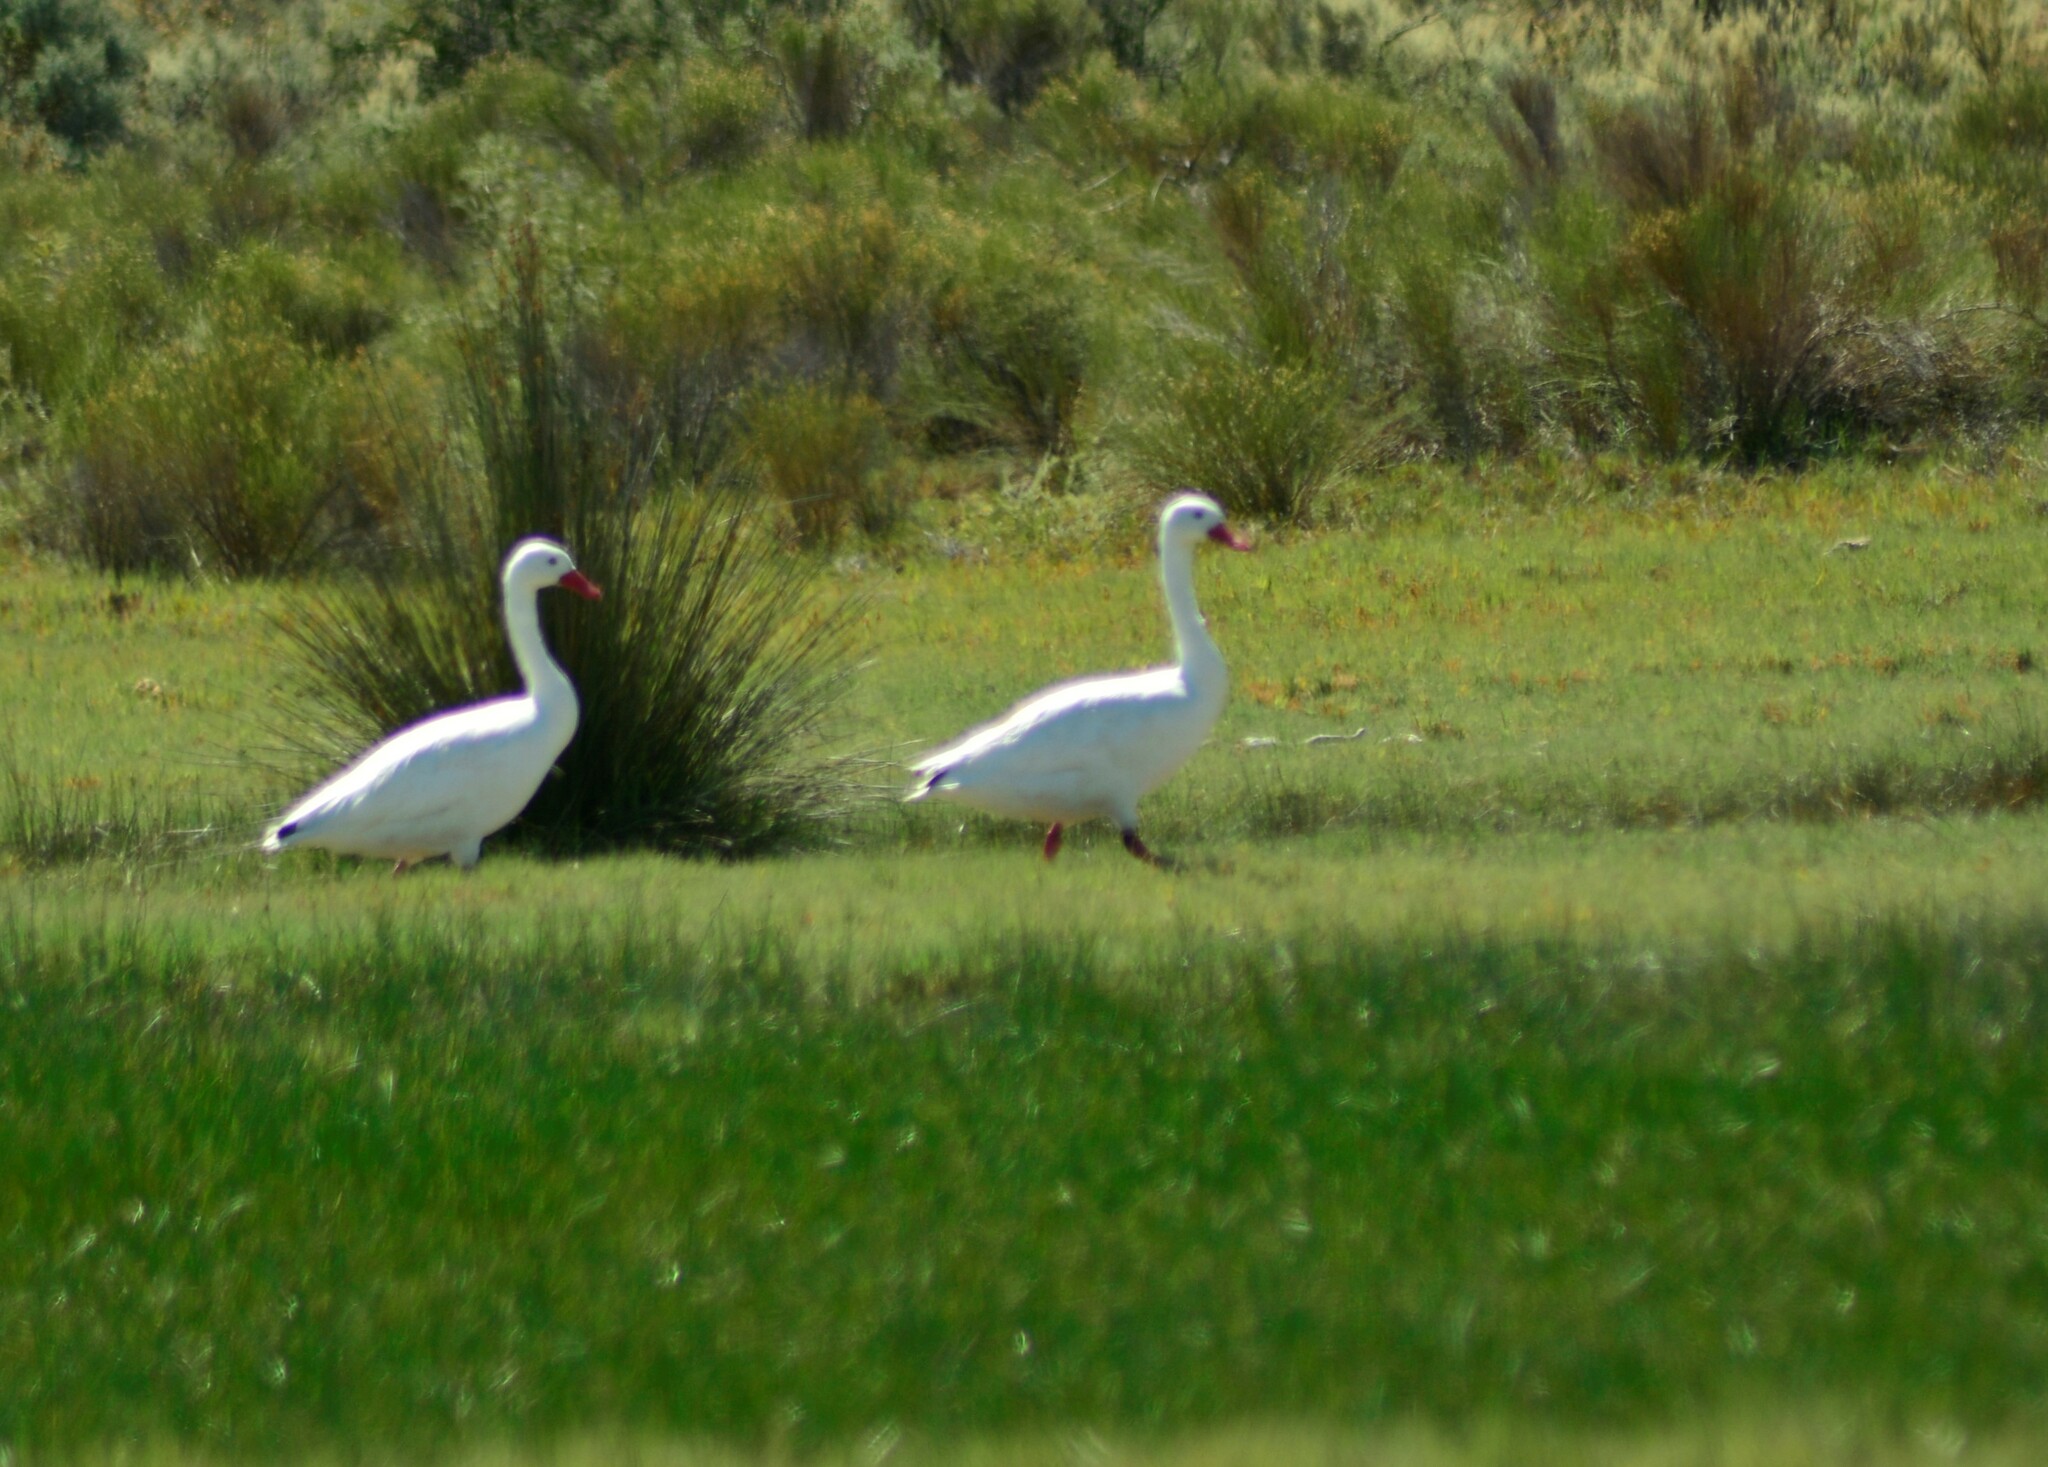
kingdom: Animalia
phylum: Chordata
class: Aves
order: Anseriformes
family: Anatidae
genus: Coscoroba
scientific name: Coscoroba coscoroba
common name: Coscoroba swan
